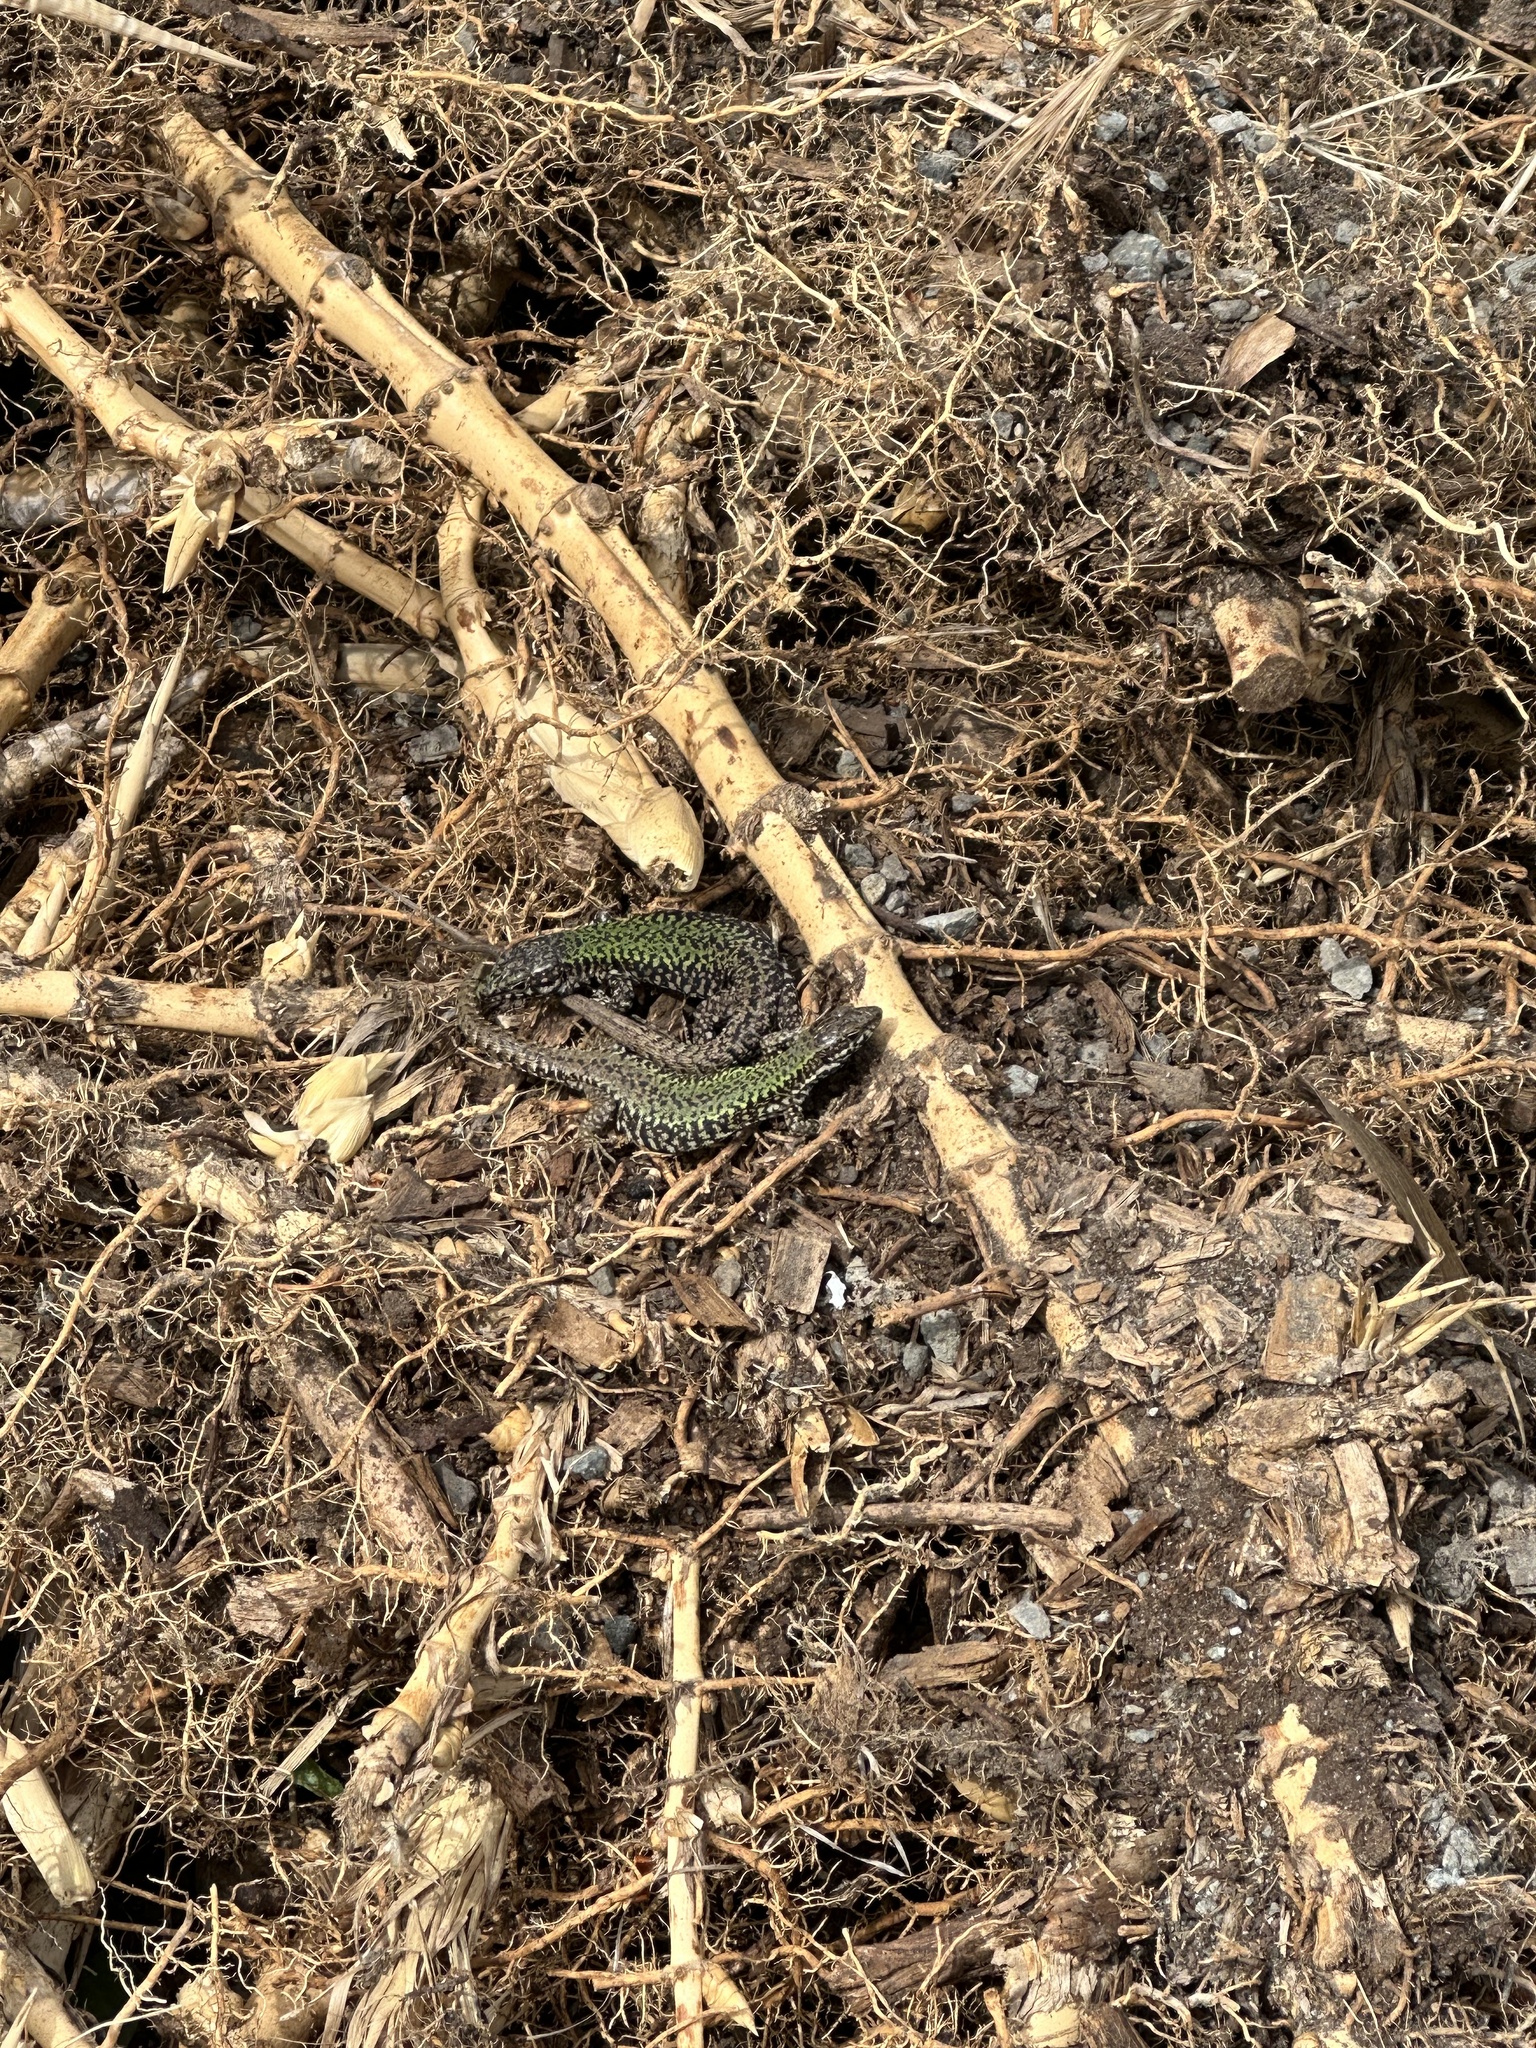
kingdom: Animalia
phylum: Chordata
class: Squamata
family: Lacertidae
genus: Podarcis
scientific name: Podarcis muralis
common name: Common wall lizard
